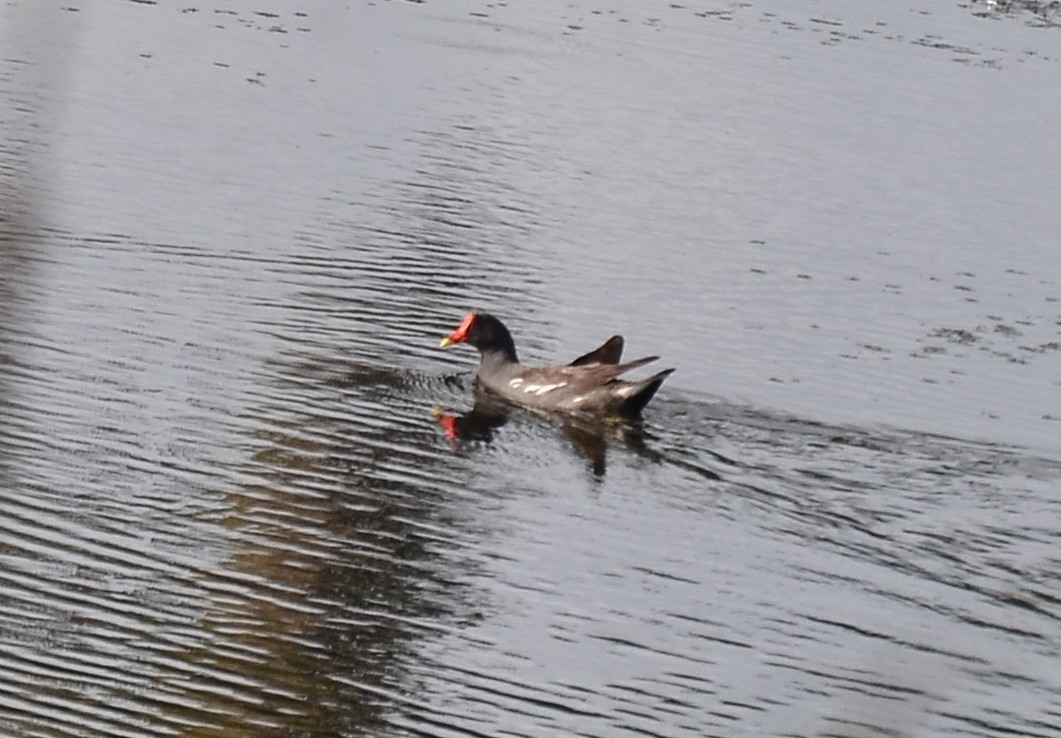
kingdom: Animalia
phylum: Chordata
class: Aves
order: Gruiformes
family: Rallidae
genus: Gallinula
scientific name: Gallinula chloropus
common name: Common moorhen
